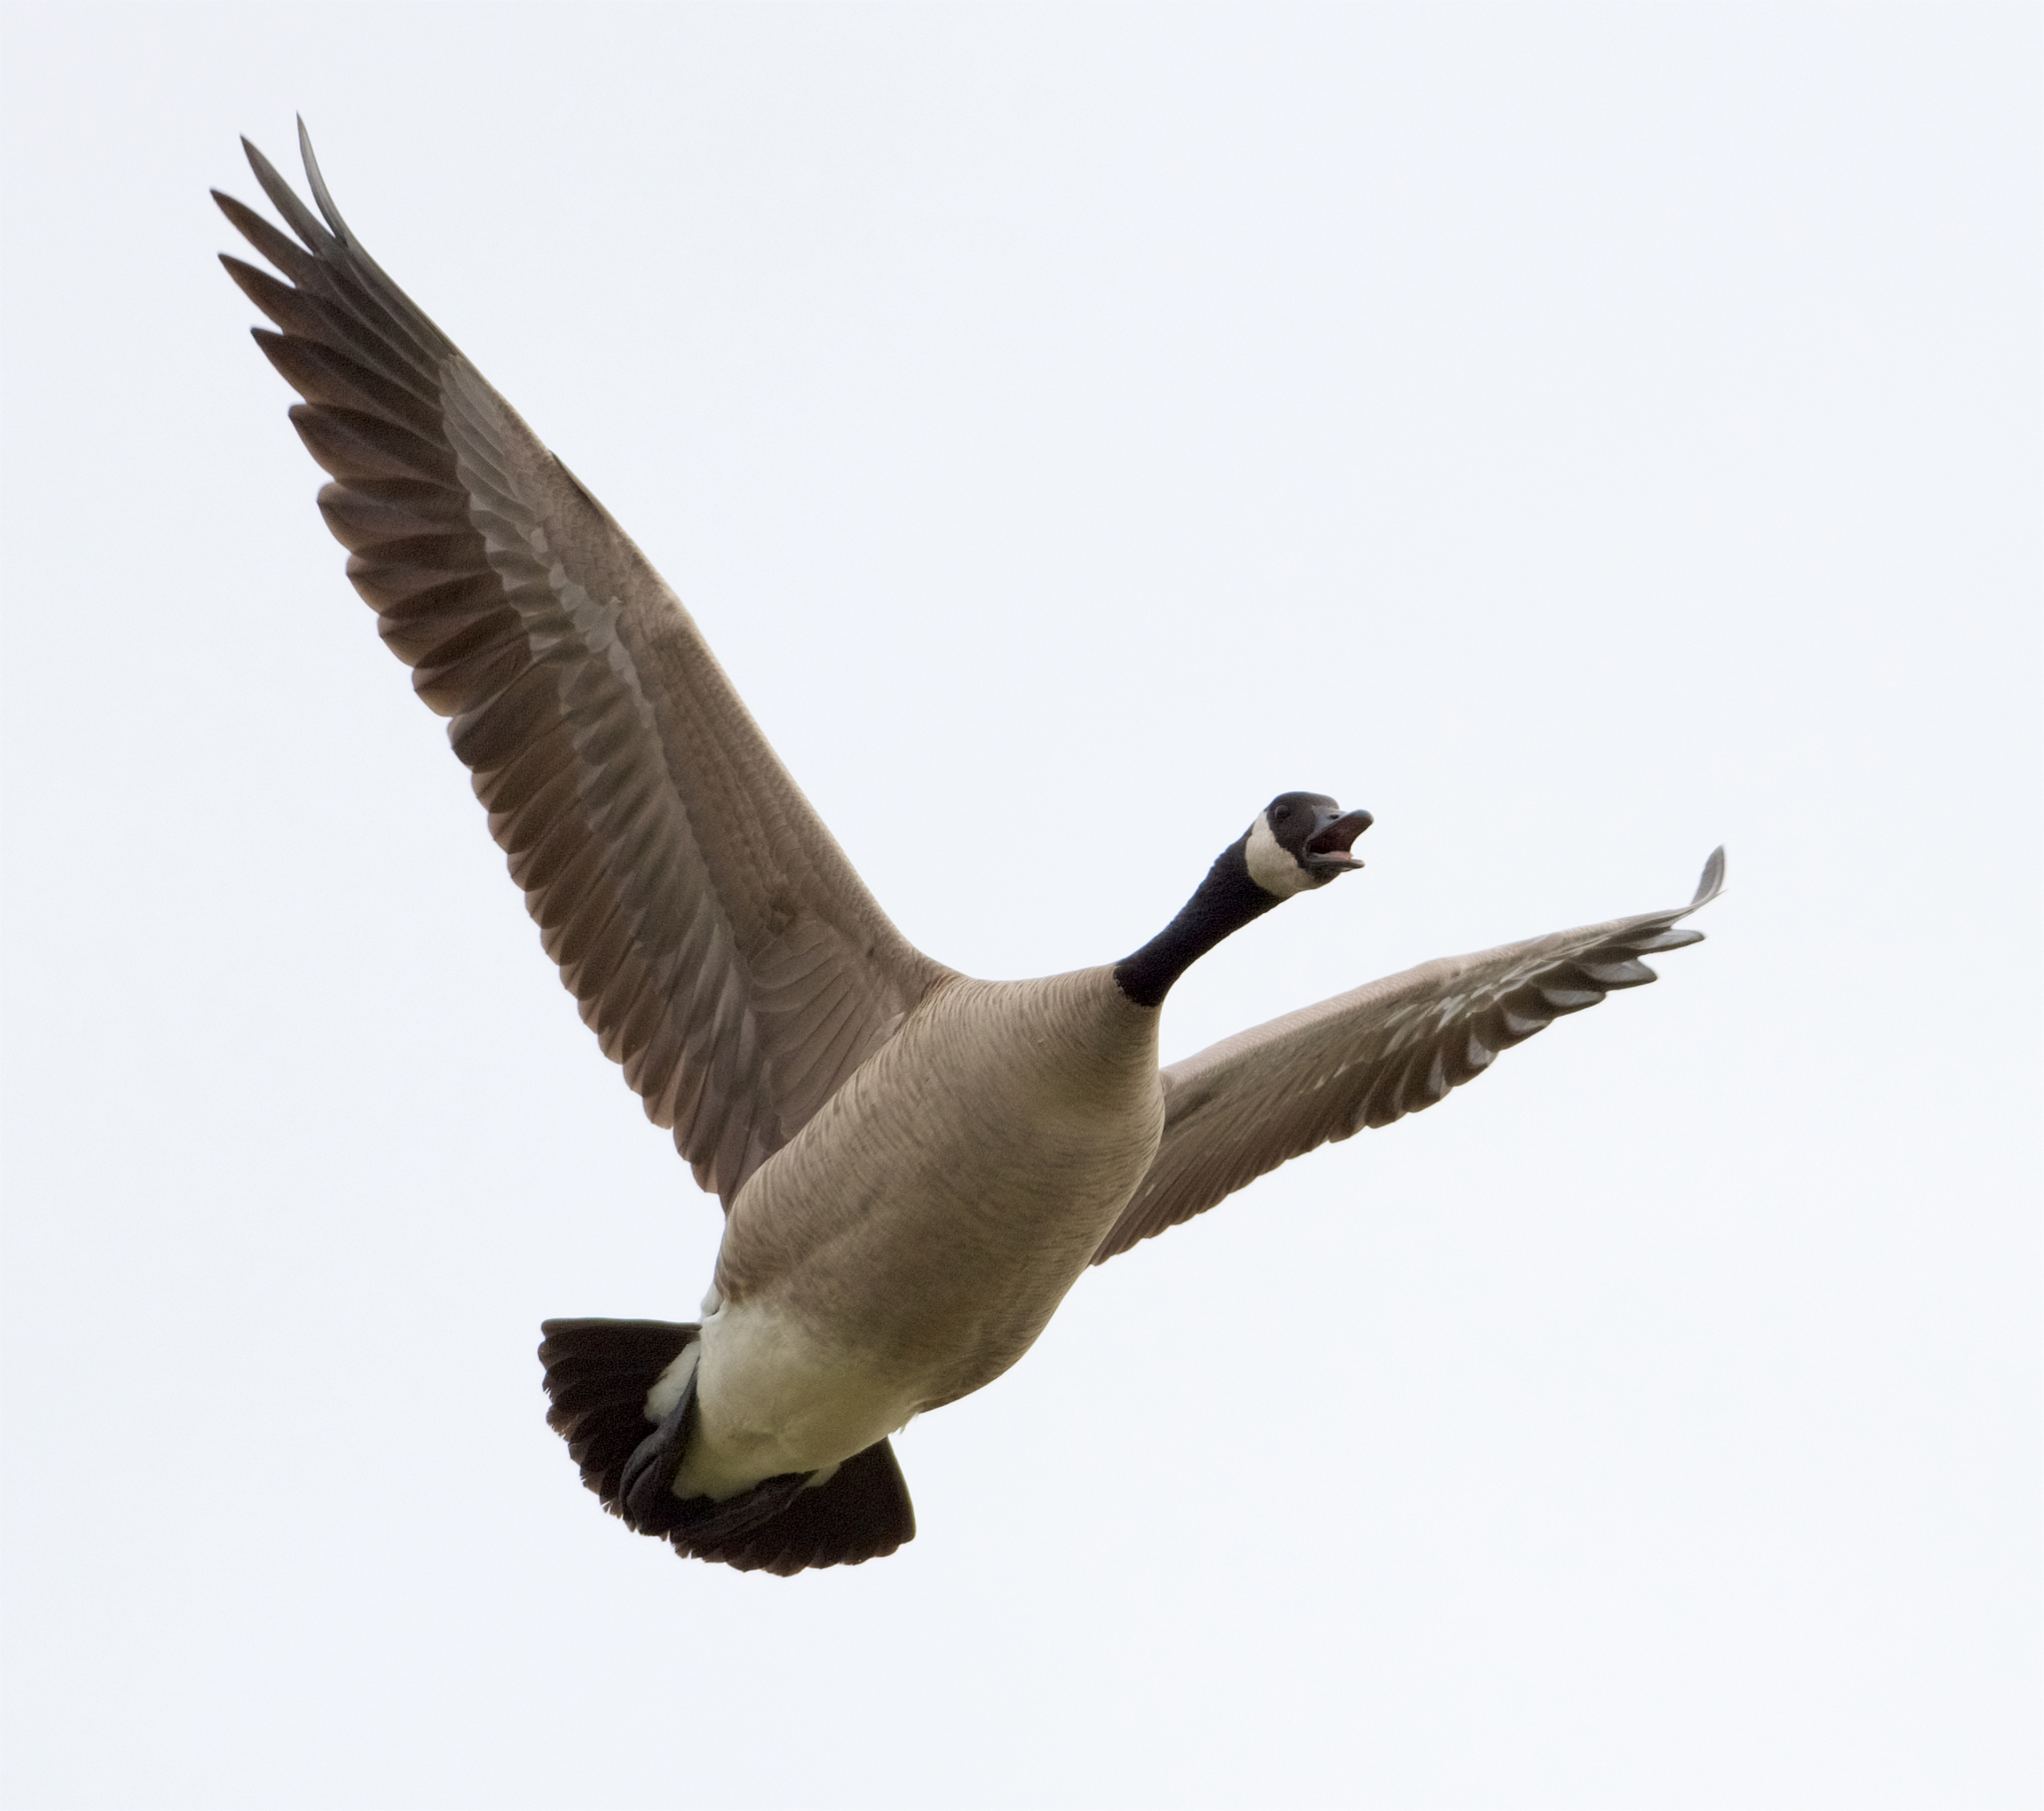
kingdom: Animalia
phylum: Chordata
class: Aves
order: Anseriformes
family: Anatidae
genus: Branta
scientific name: Branta canadensis
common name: Canada goose
